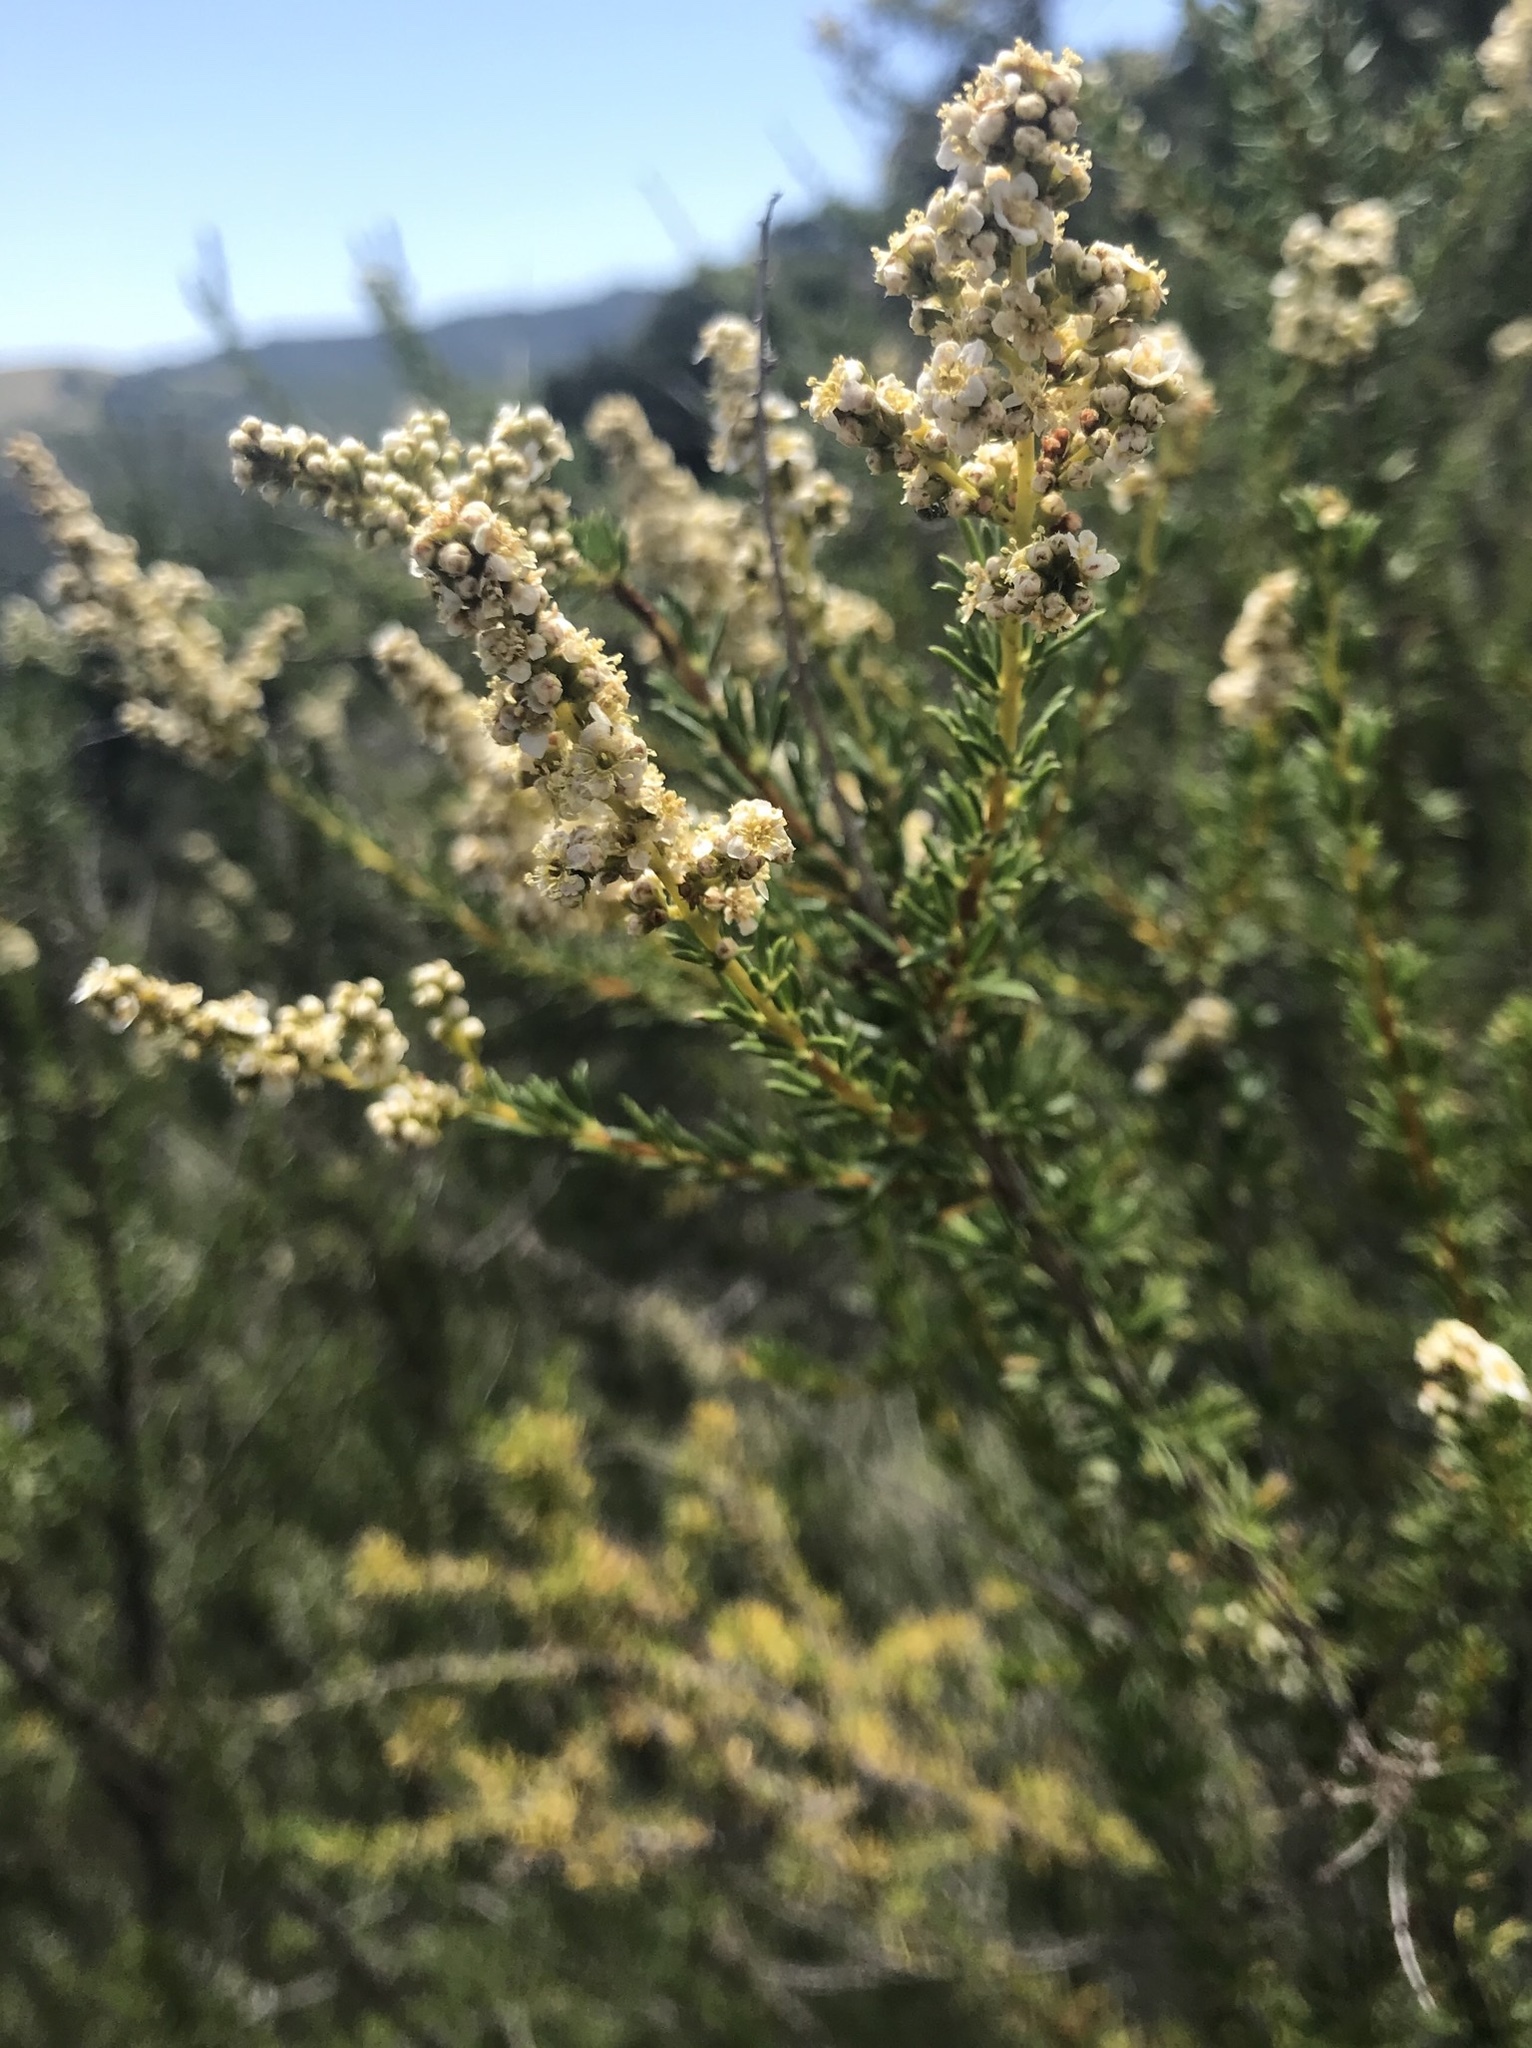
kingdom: Plantae
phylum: Tracheophyta
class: Magnoliopsida
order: Rosales
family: Rosaceae
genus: Adenostoma
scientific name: Adenostoma fasciculatum
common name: Chamise
